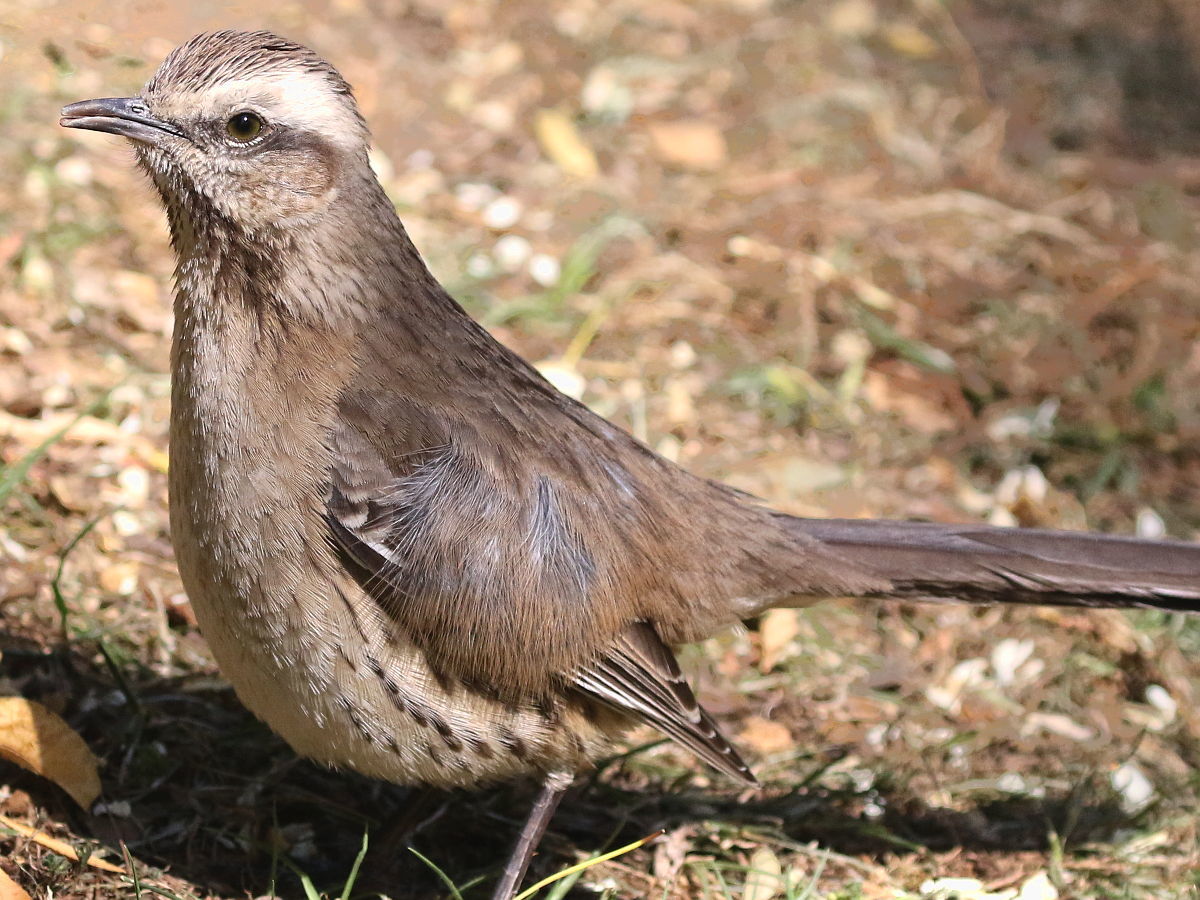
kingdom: Animalia
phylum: Chordata
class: Aves
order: Passeriformes
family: Mimidae
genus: Mimus
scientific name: Mimus thenca
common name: Chilean mockingbird
